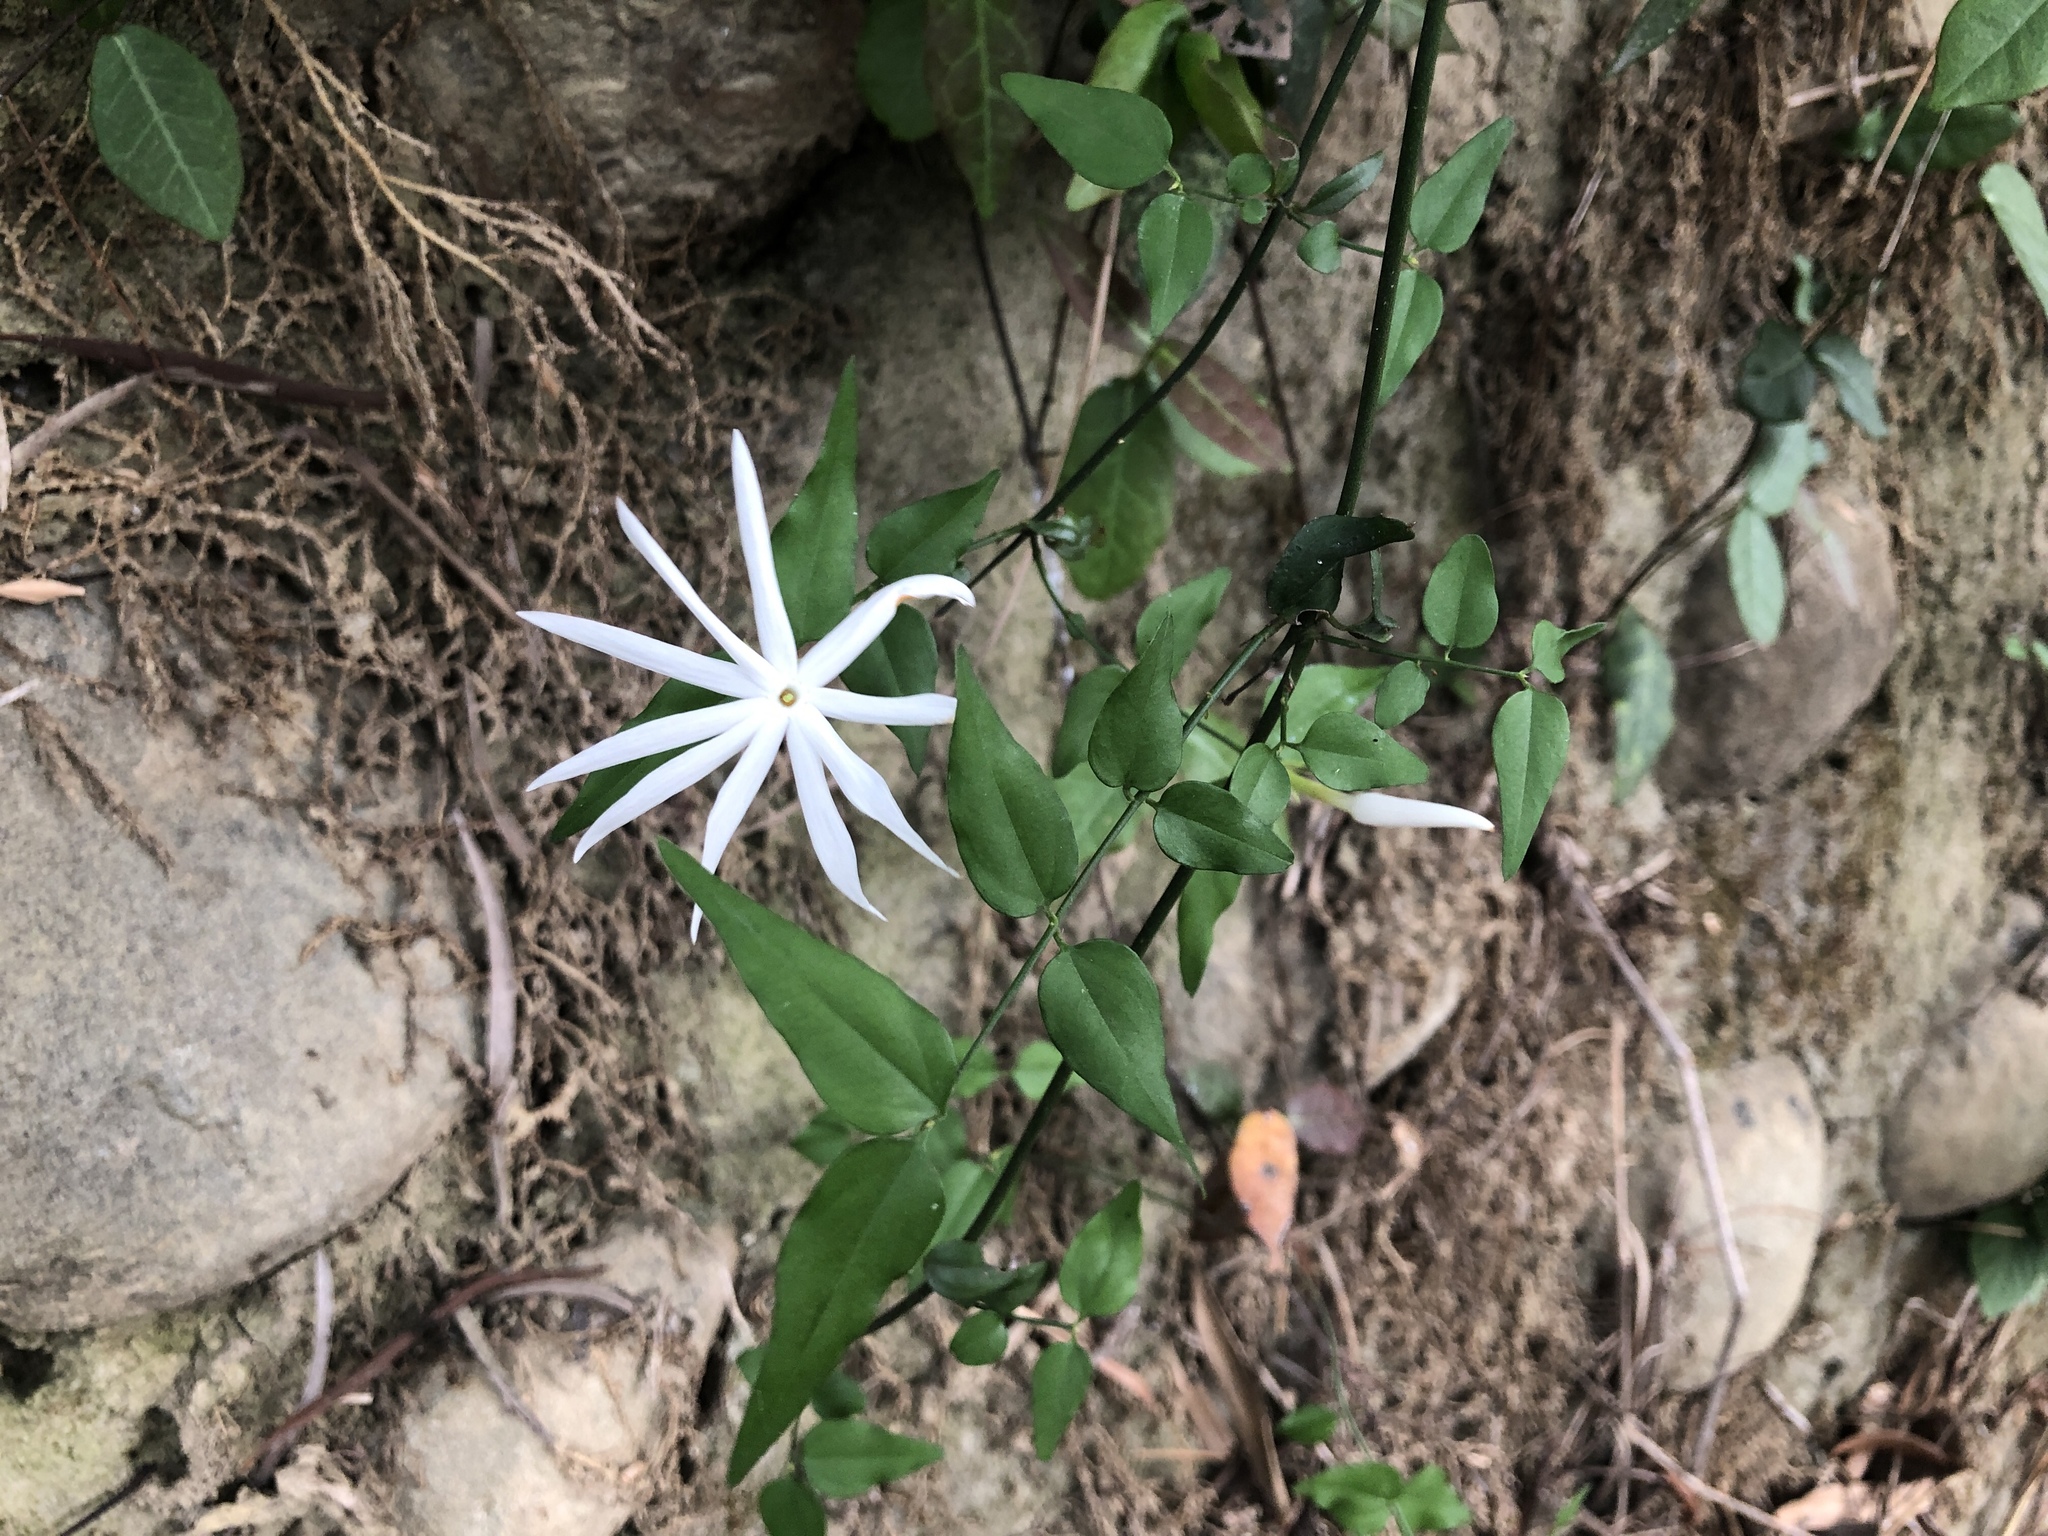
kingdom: Plantae
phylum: Tracheophyta
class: Magnoliopsida
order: Lamiales
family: Oleaceae
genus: Jasminum
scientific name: Jasminum nervosum
